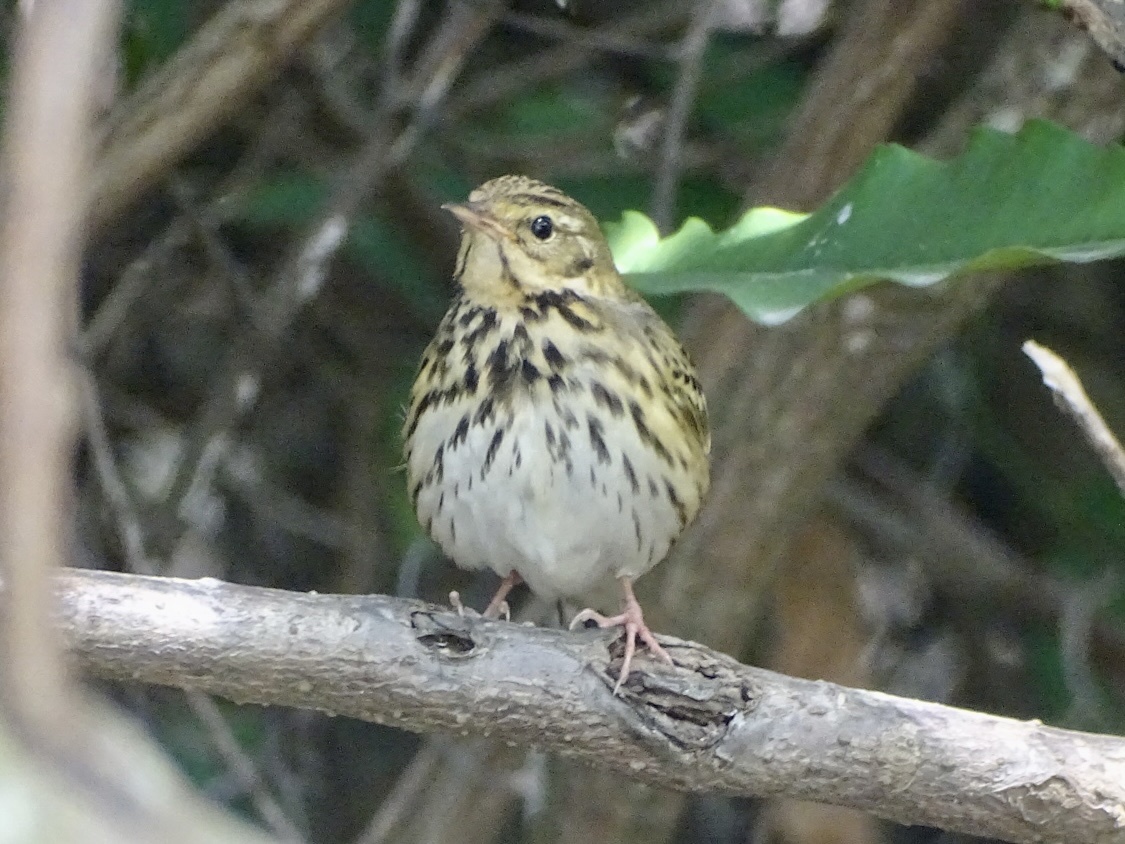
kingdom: Animalia
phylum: Chordata
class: Aves
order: Passeriformes
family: Motacillidae
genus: Anthus
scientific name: Anthus hodgsoni
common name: Olive-backed pipit
